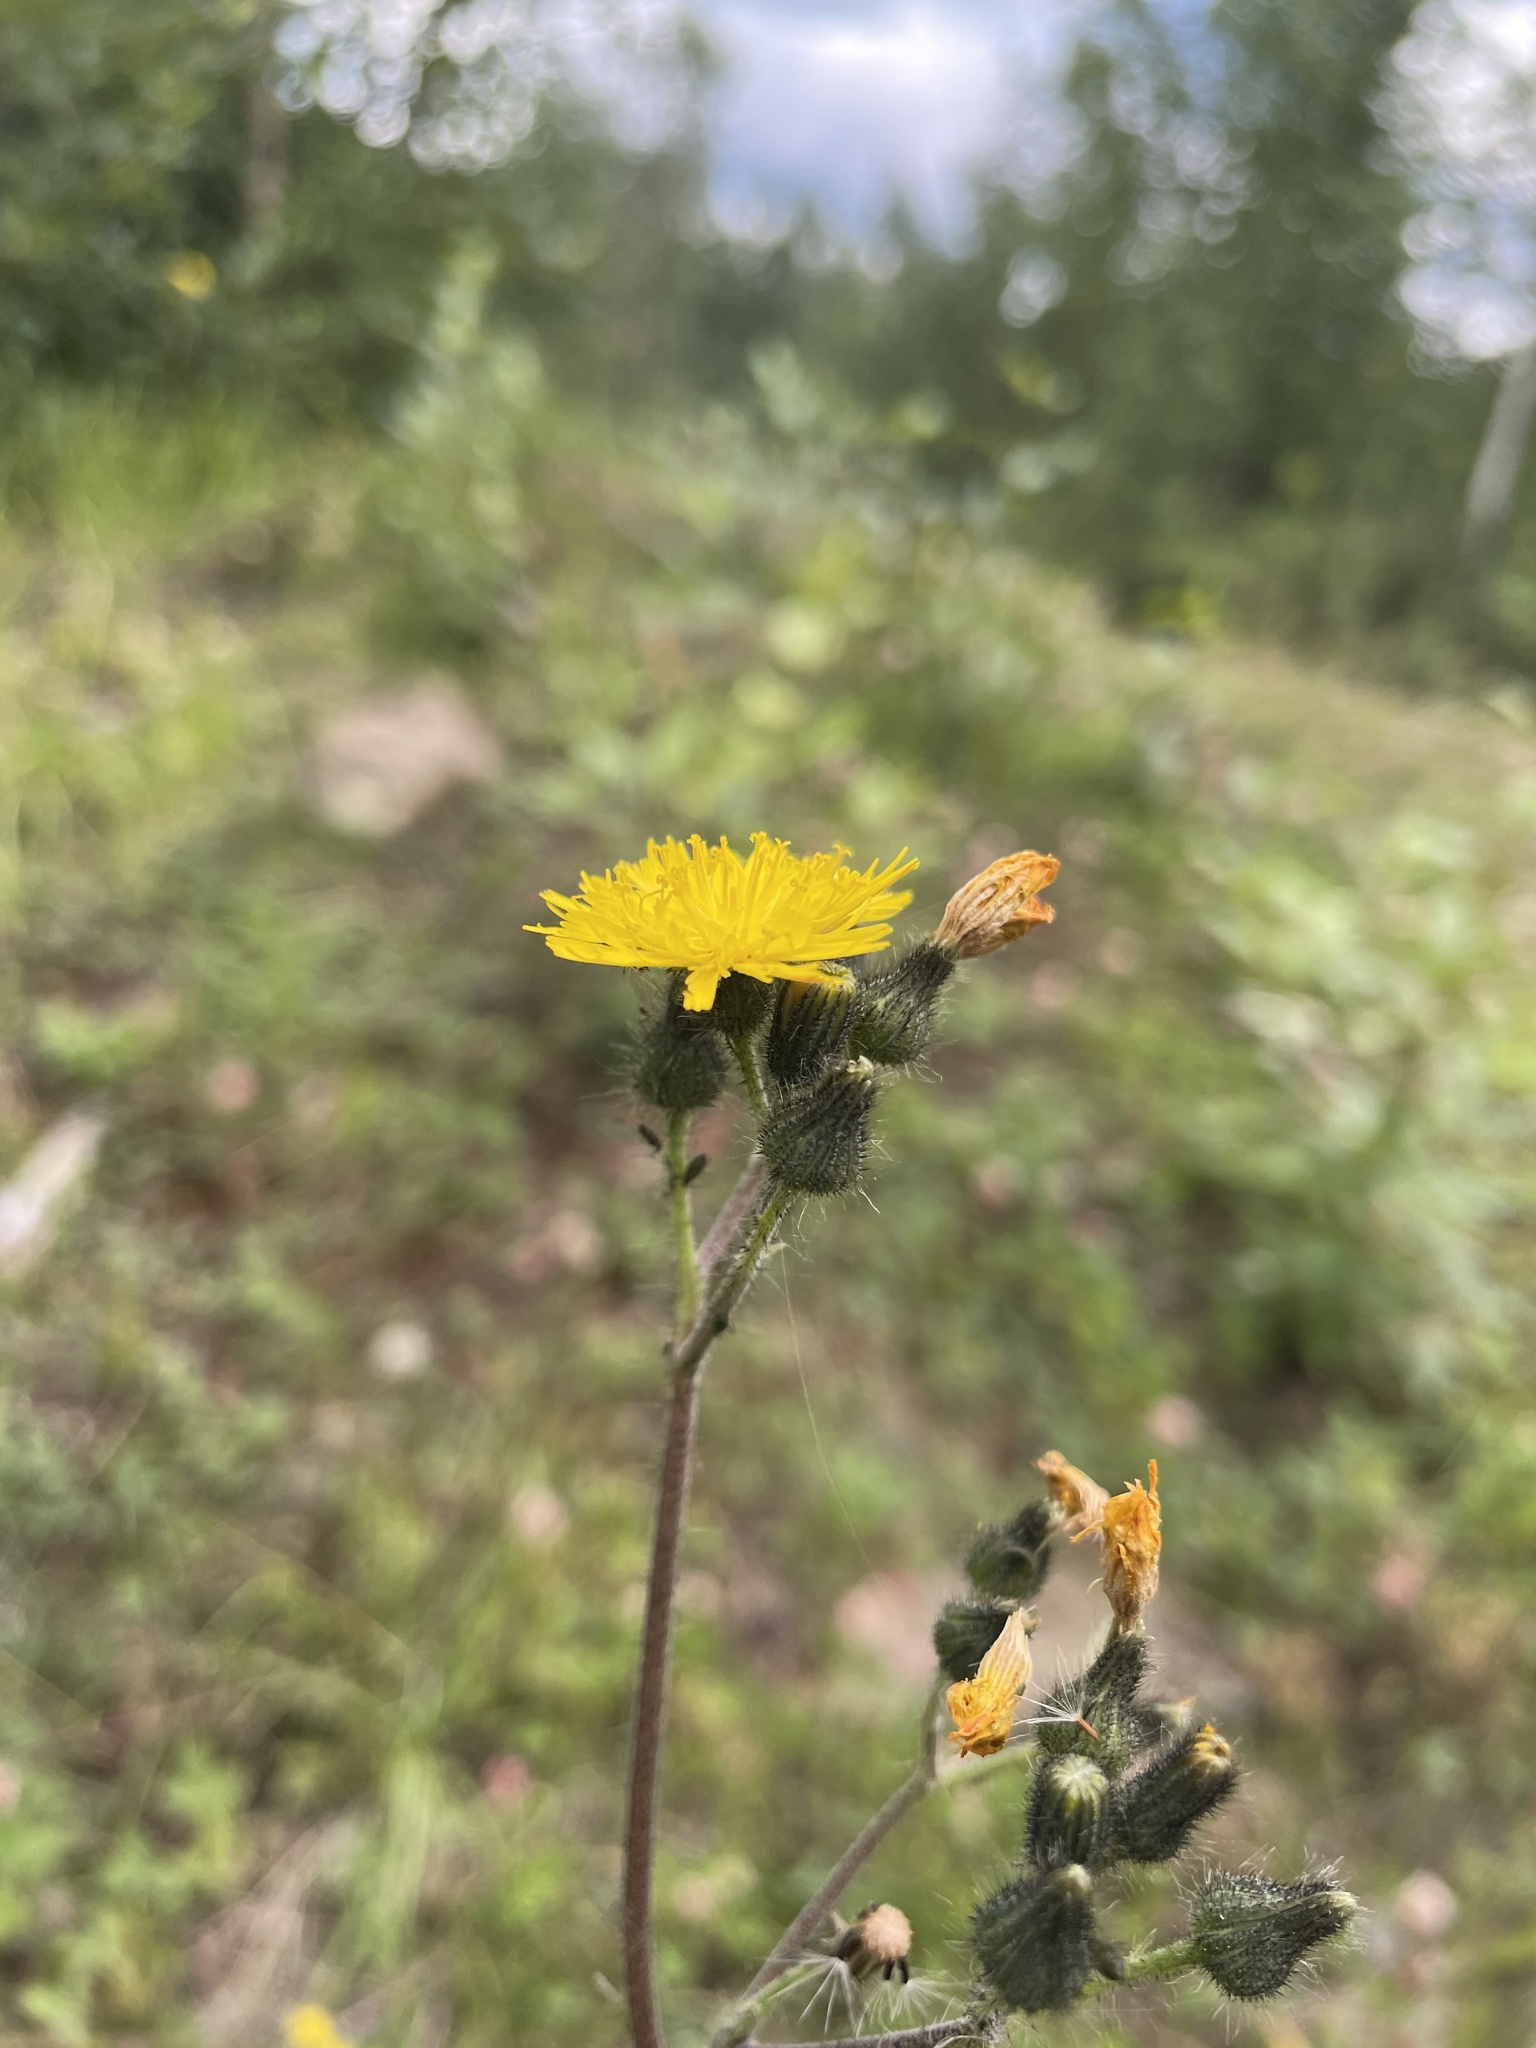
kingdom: Plantae
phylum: Tracheophyta
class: Magnoliopsida
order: Asterales
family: Asteraceae
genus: Pilosella
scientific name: Pilosella caespitosa
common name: Yellow fox-and-cubs
